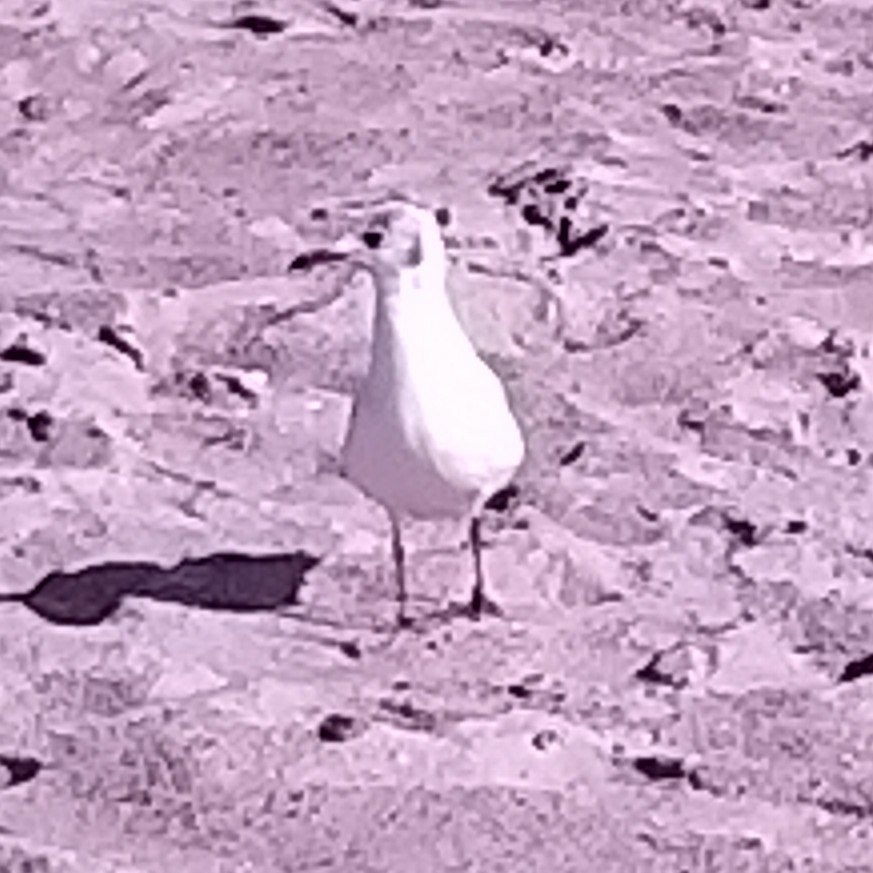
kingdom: Animalia
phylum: Chordata
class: Aves
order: Charadriiformes
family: Laridae
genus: Chroicocephalus
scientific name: Chroicocephalus ridibundus
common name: Black-headed gull
